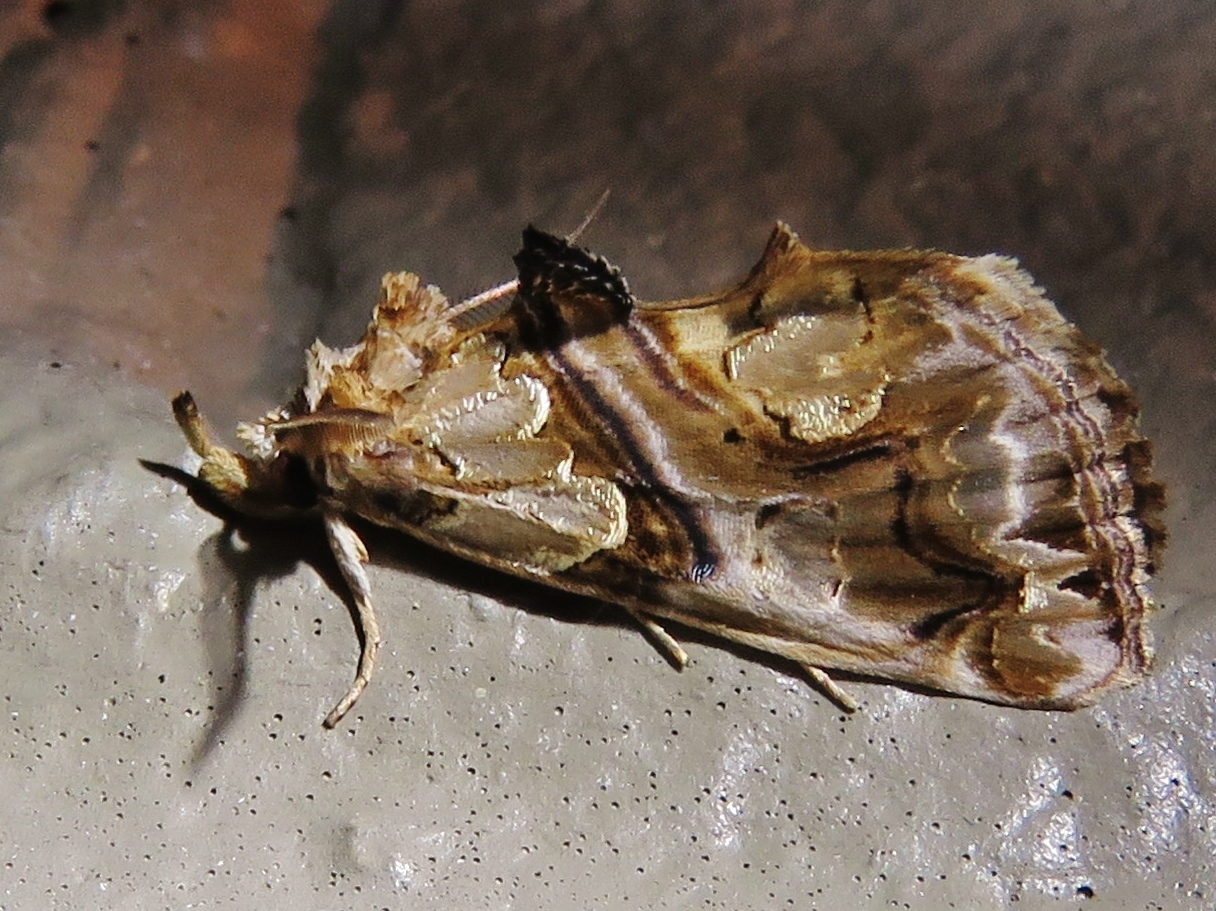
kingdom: Animalia
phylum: Arthropoda
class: Insecta
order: Lepidoptera
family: Erebidae
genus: Plusiodonta
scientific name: Plusiodonta compressipalpis
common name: Moonseed moth
